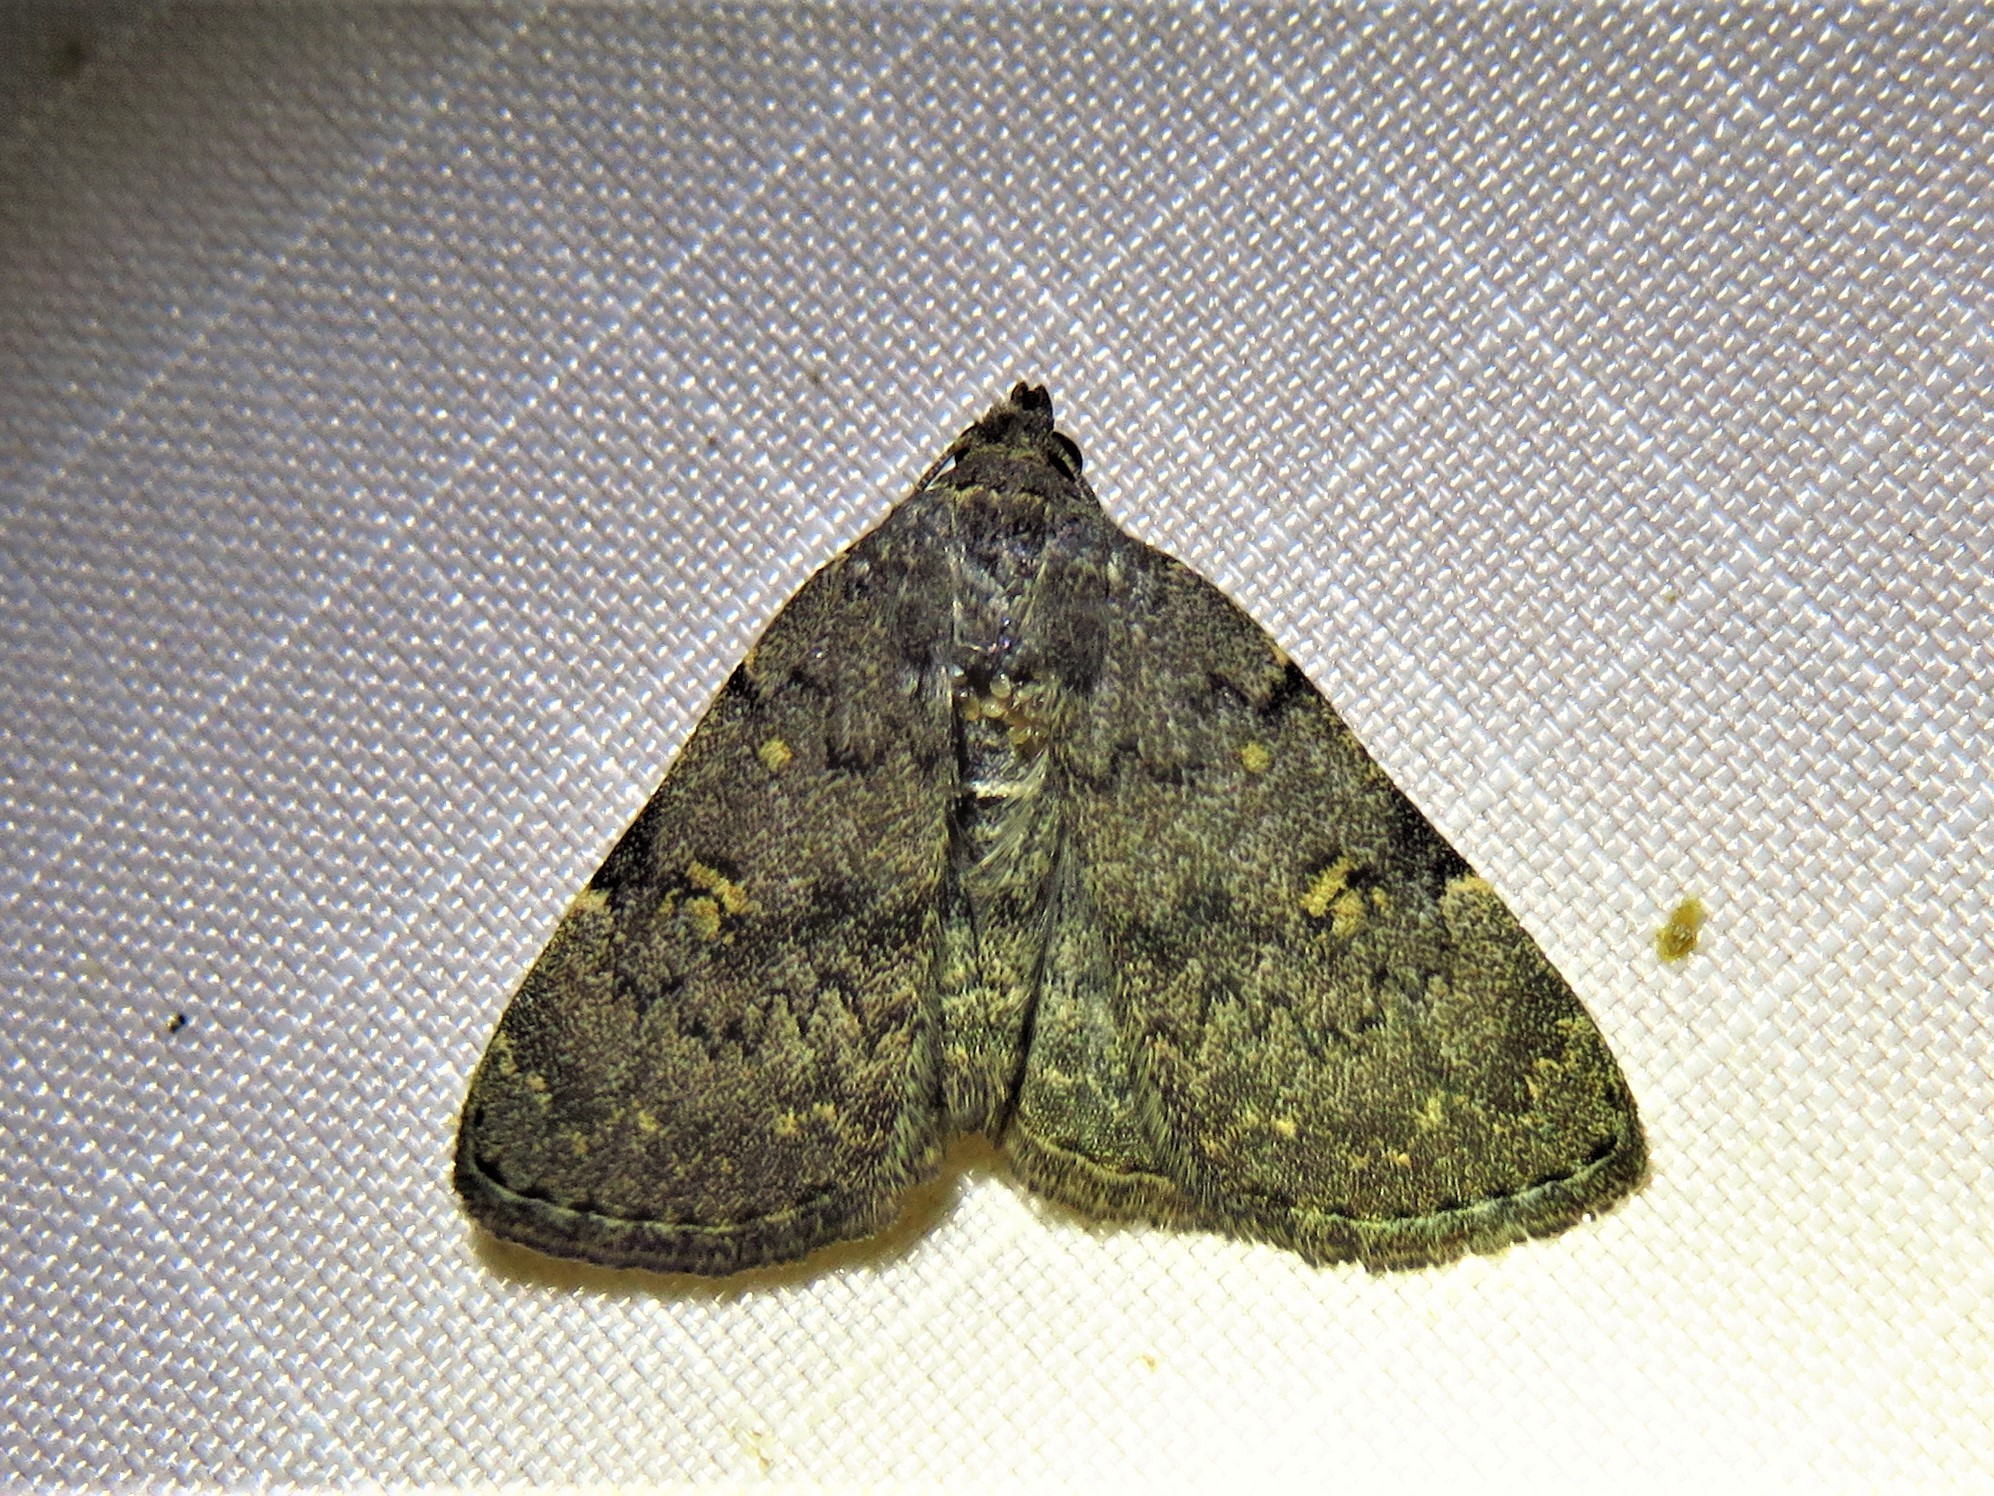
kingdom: Animalia
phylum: Arthropoda
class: Insecta
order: Lepidoptera
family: Erebidae
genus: Idia
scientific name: Idia aemula
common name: Common idia moth
